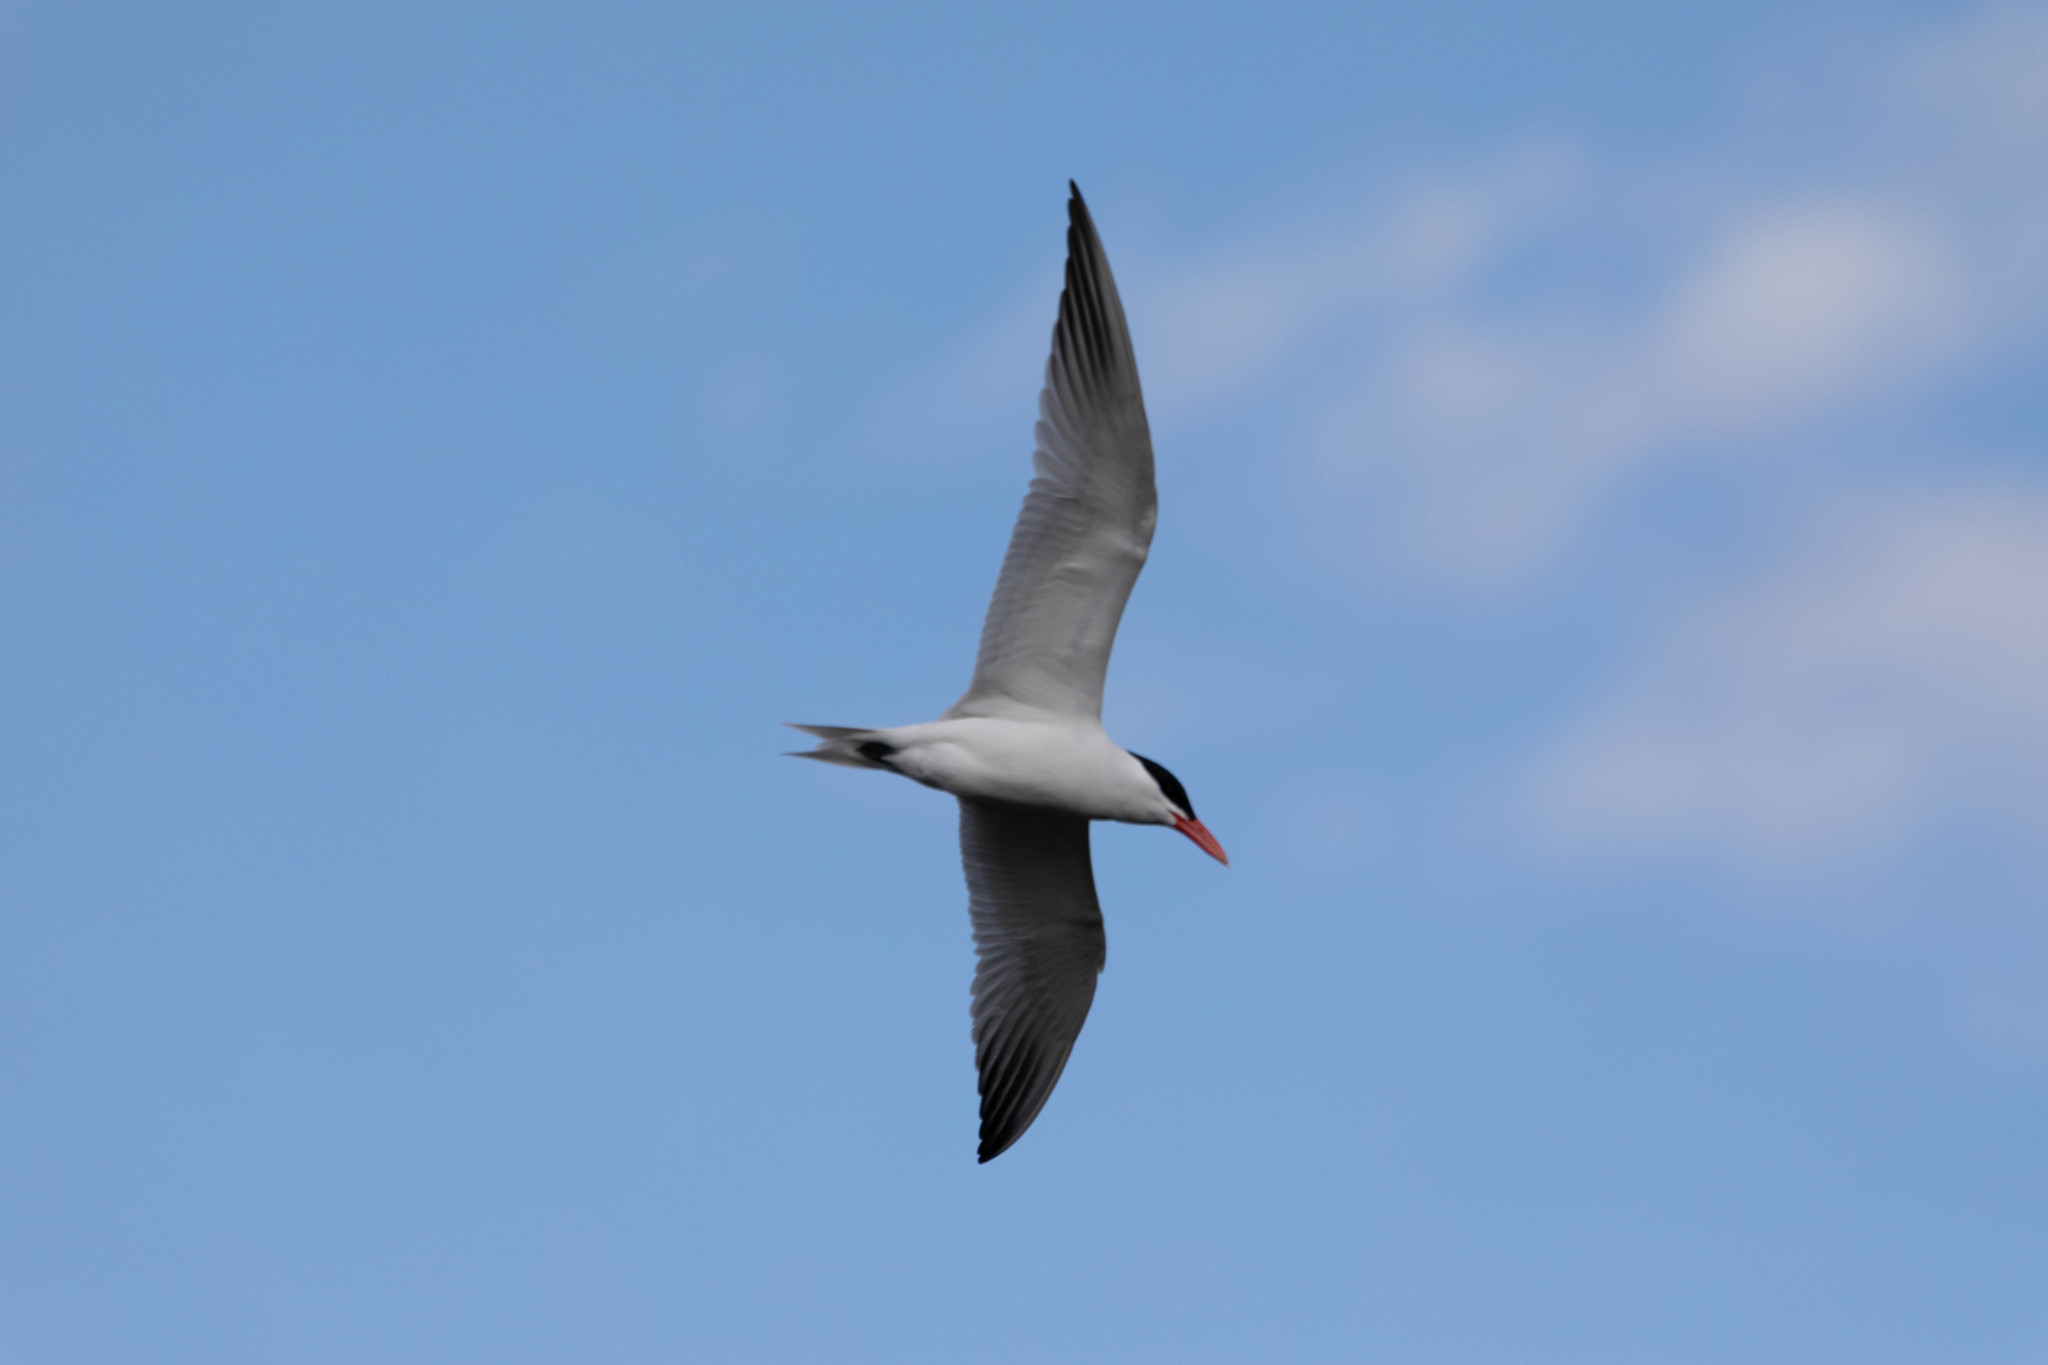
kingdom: Animalia
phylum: Chordata
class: Aves
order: Charadriiformes
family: Laridae
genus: Hydroprogne
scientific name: Hydroprogne caspia
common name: Caspian tern
